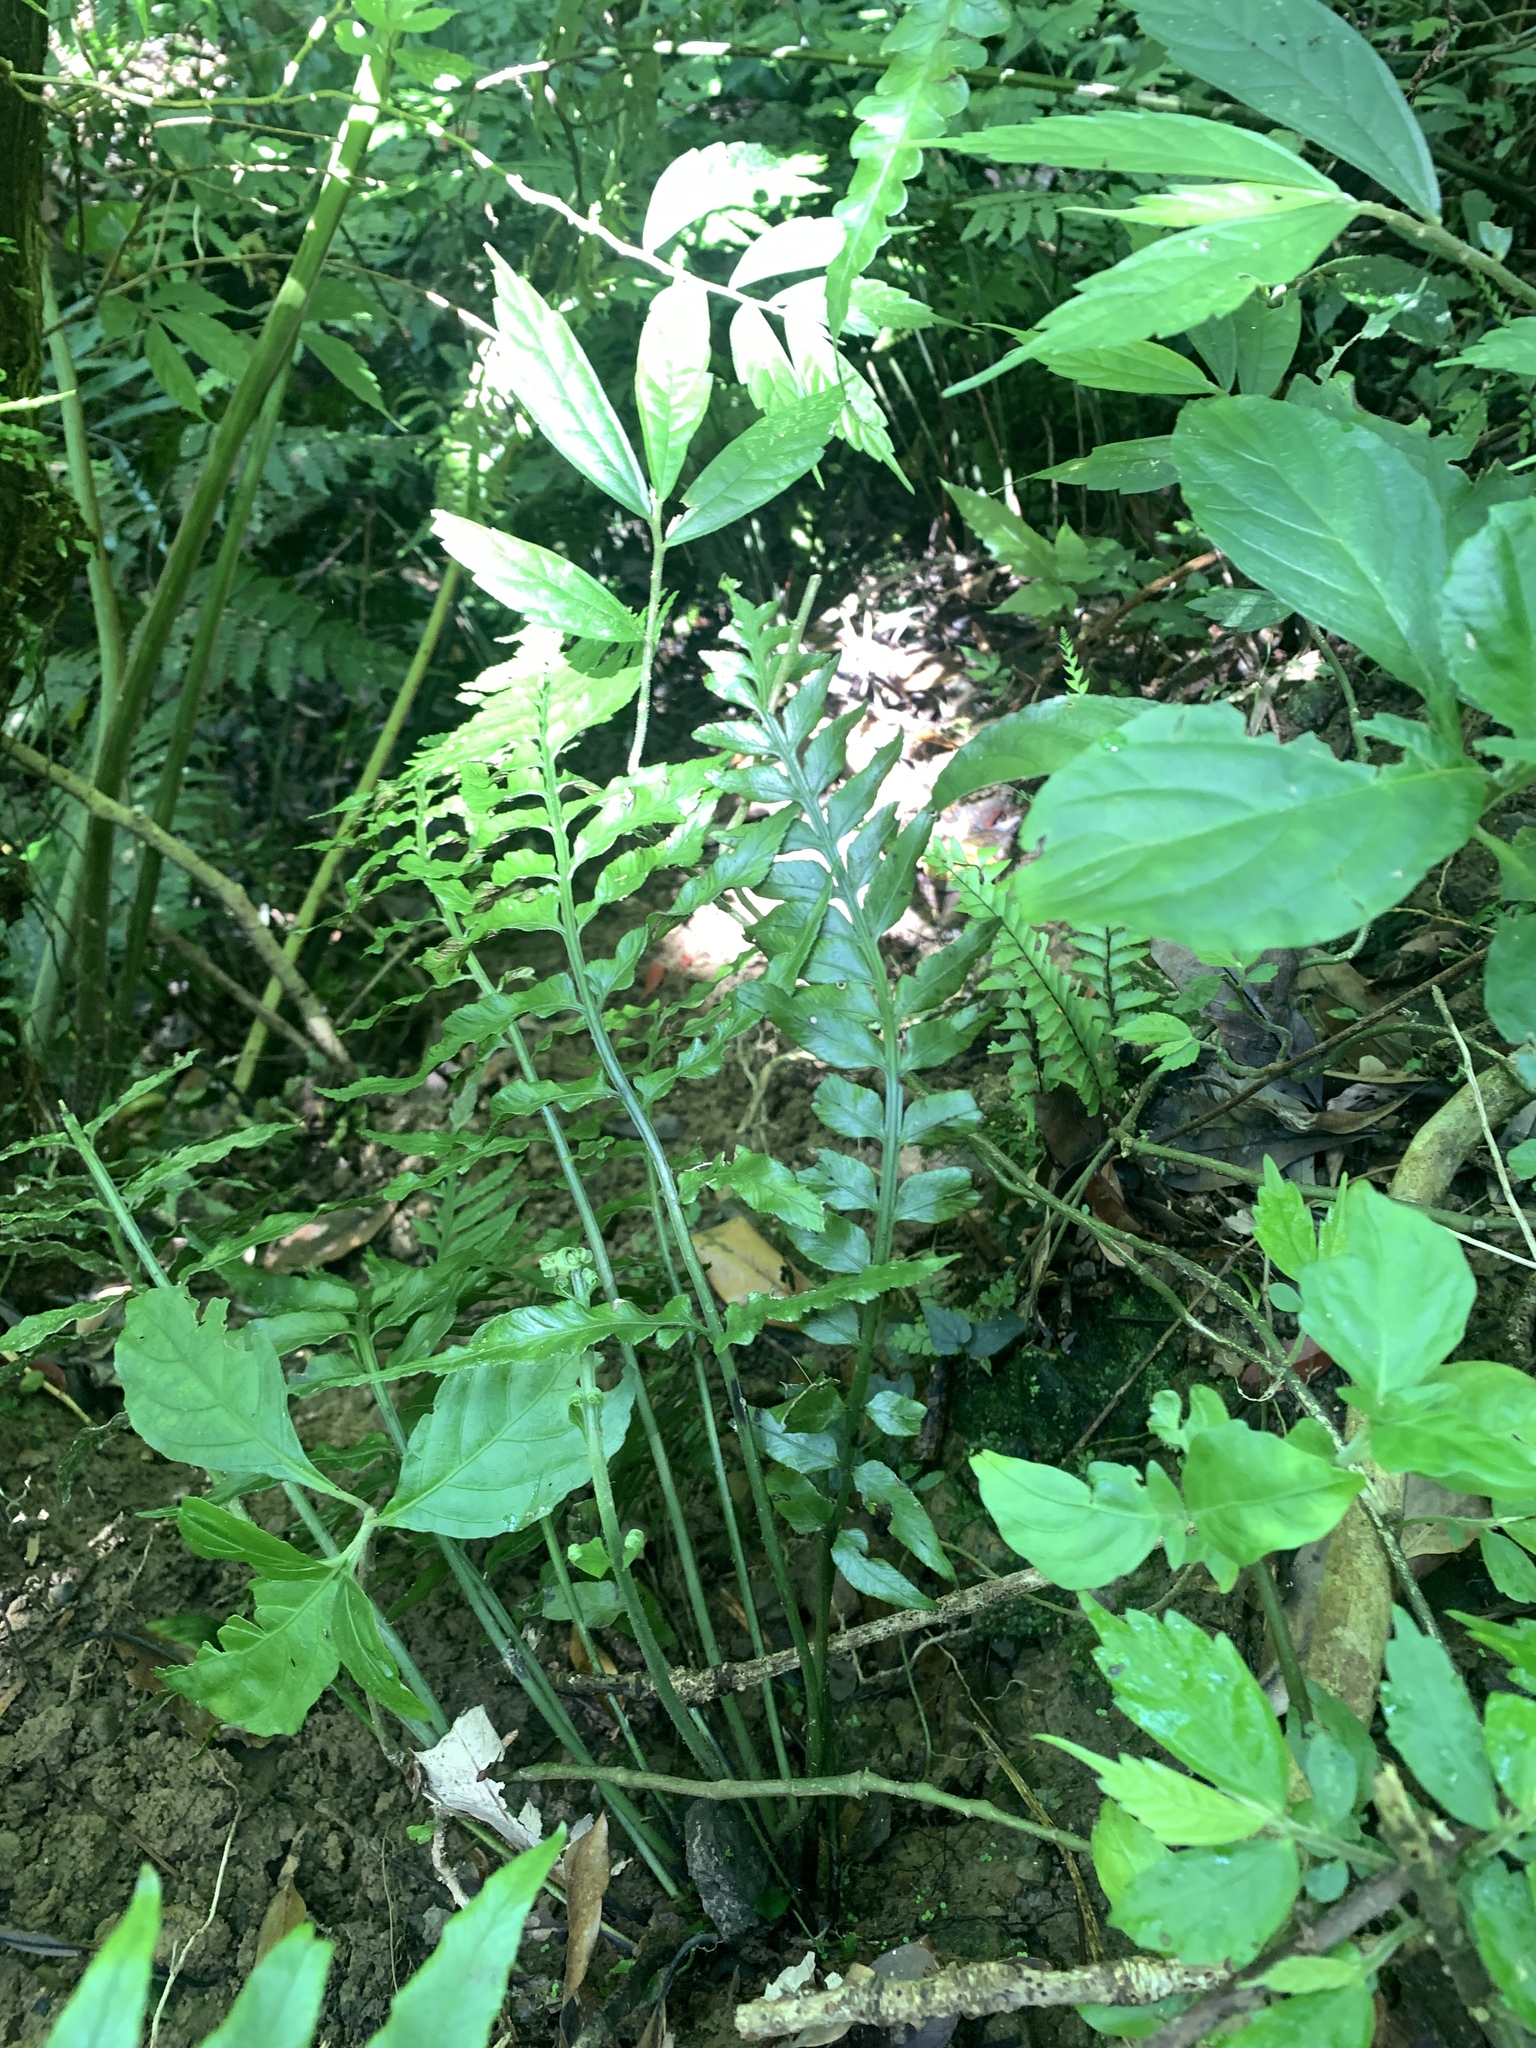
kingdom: Plantae
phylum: Tracheophyta
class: Polypodiopsida
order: Polypodiales
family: Aspleniaceae
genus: Asplenium
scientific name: Asplenium wrightii
